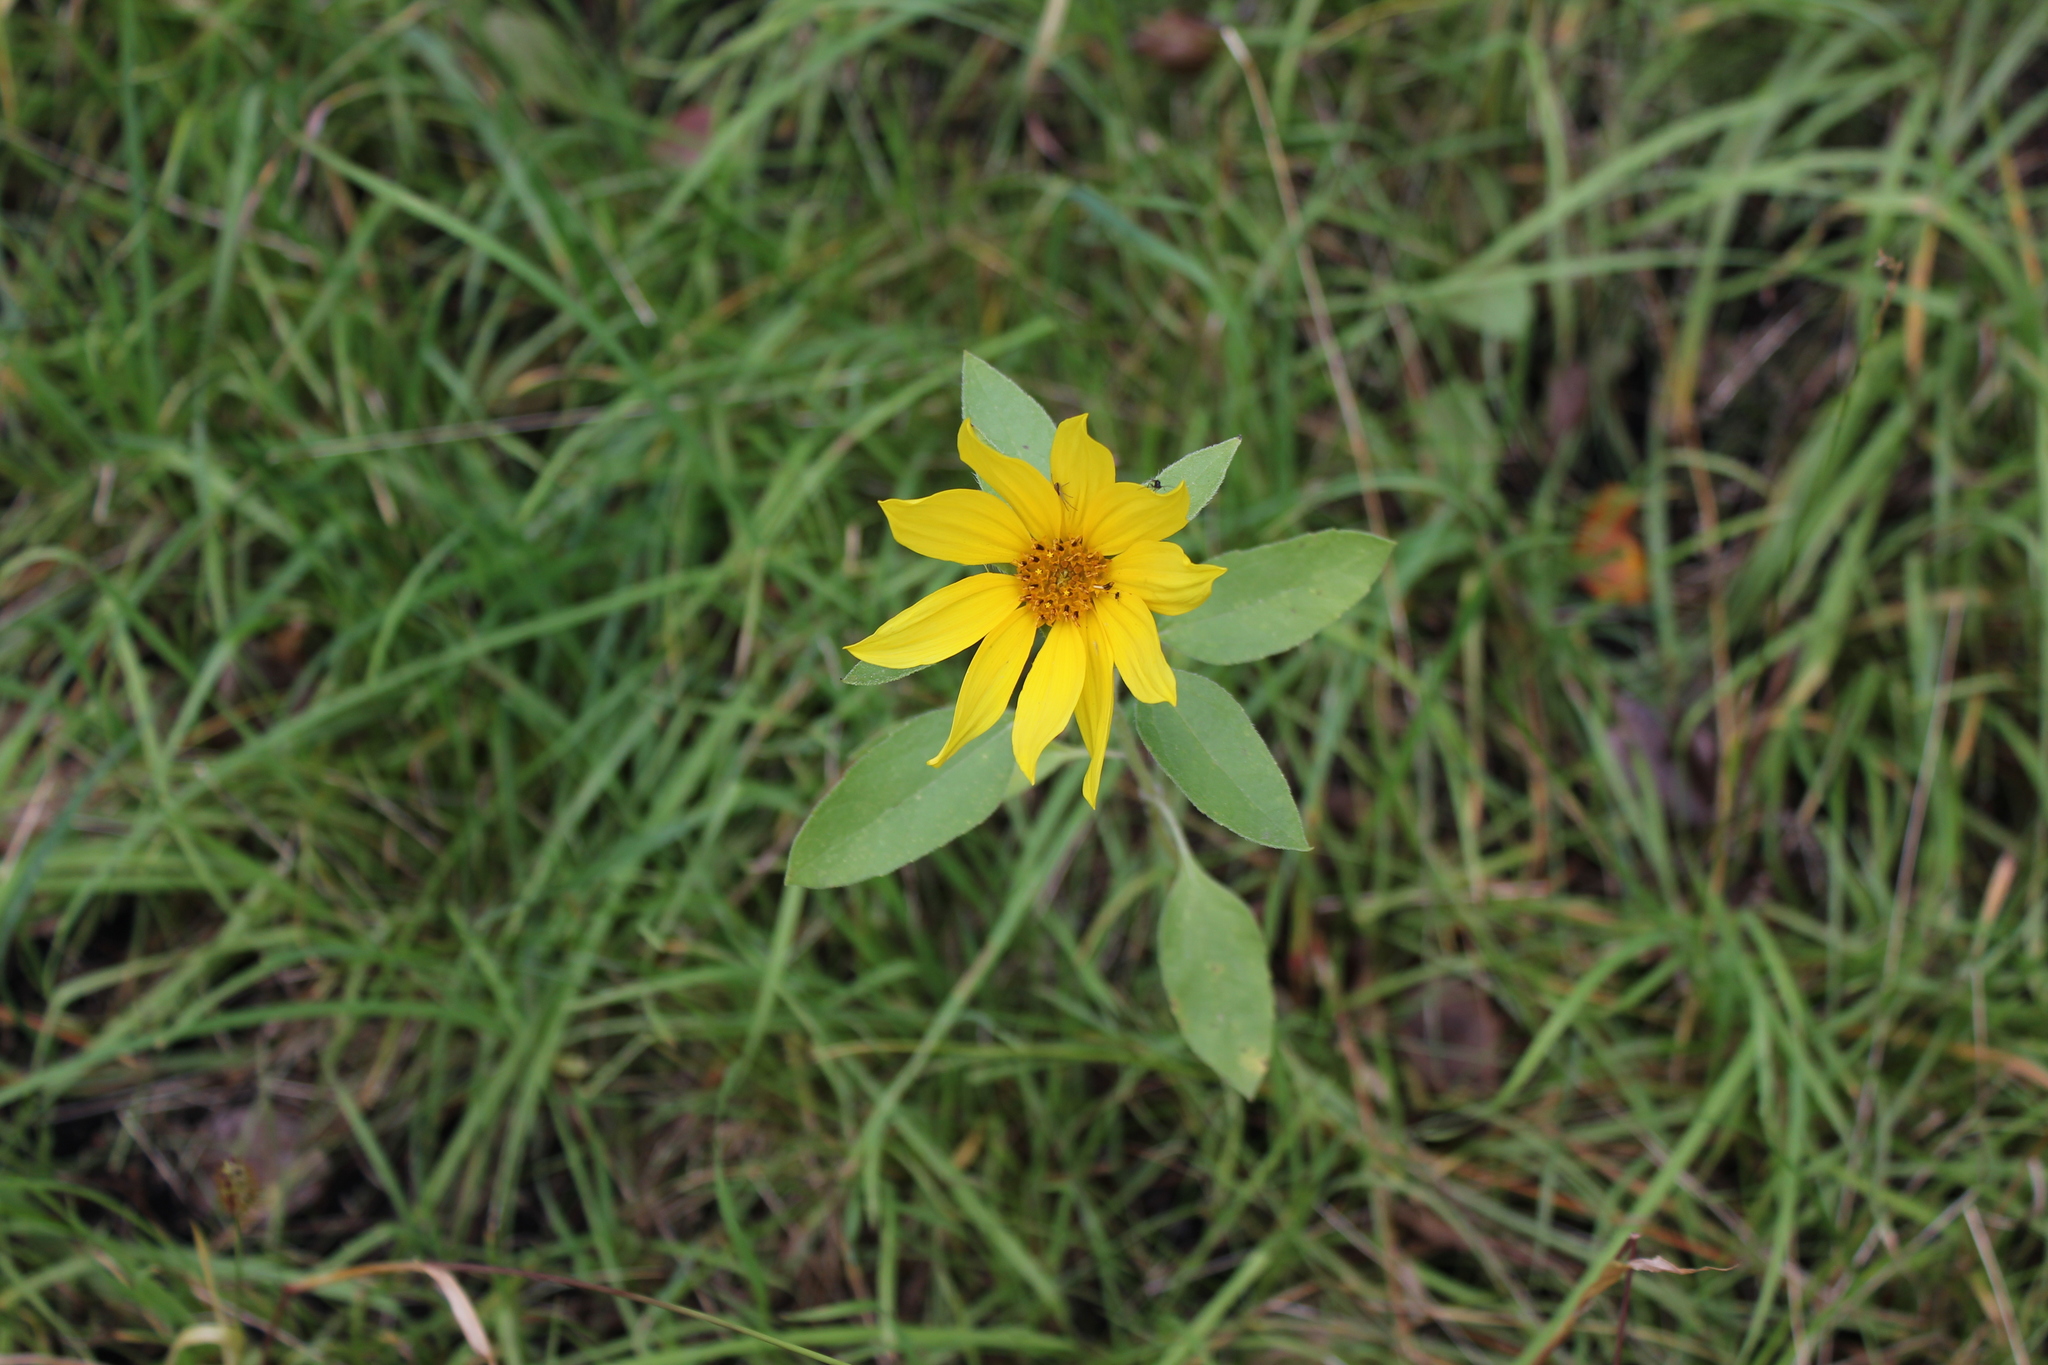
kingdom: Plantae
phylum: Tracheophyta
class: Magnoliopsida
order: Asterales
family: Asteraceae
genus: Helianthus
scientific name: Helianthus annuus
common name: Sunflower
